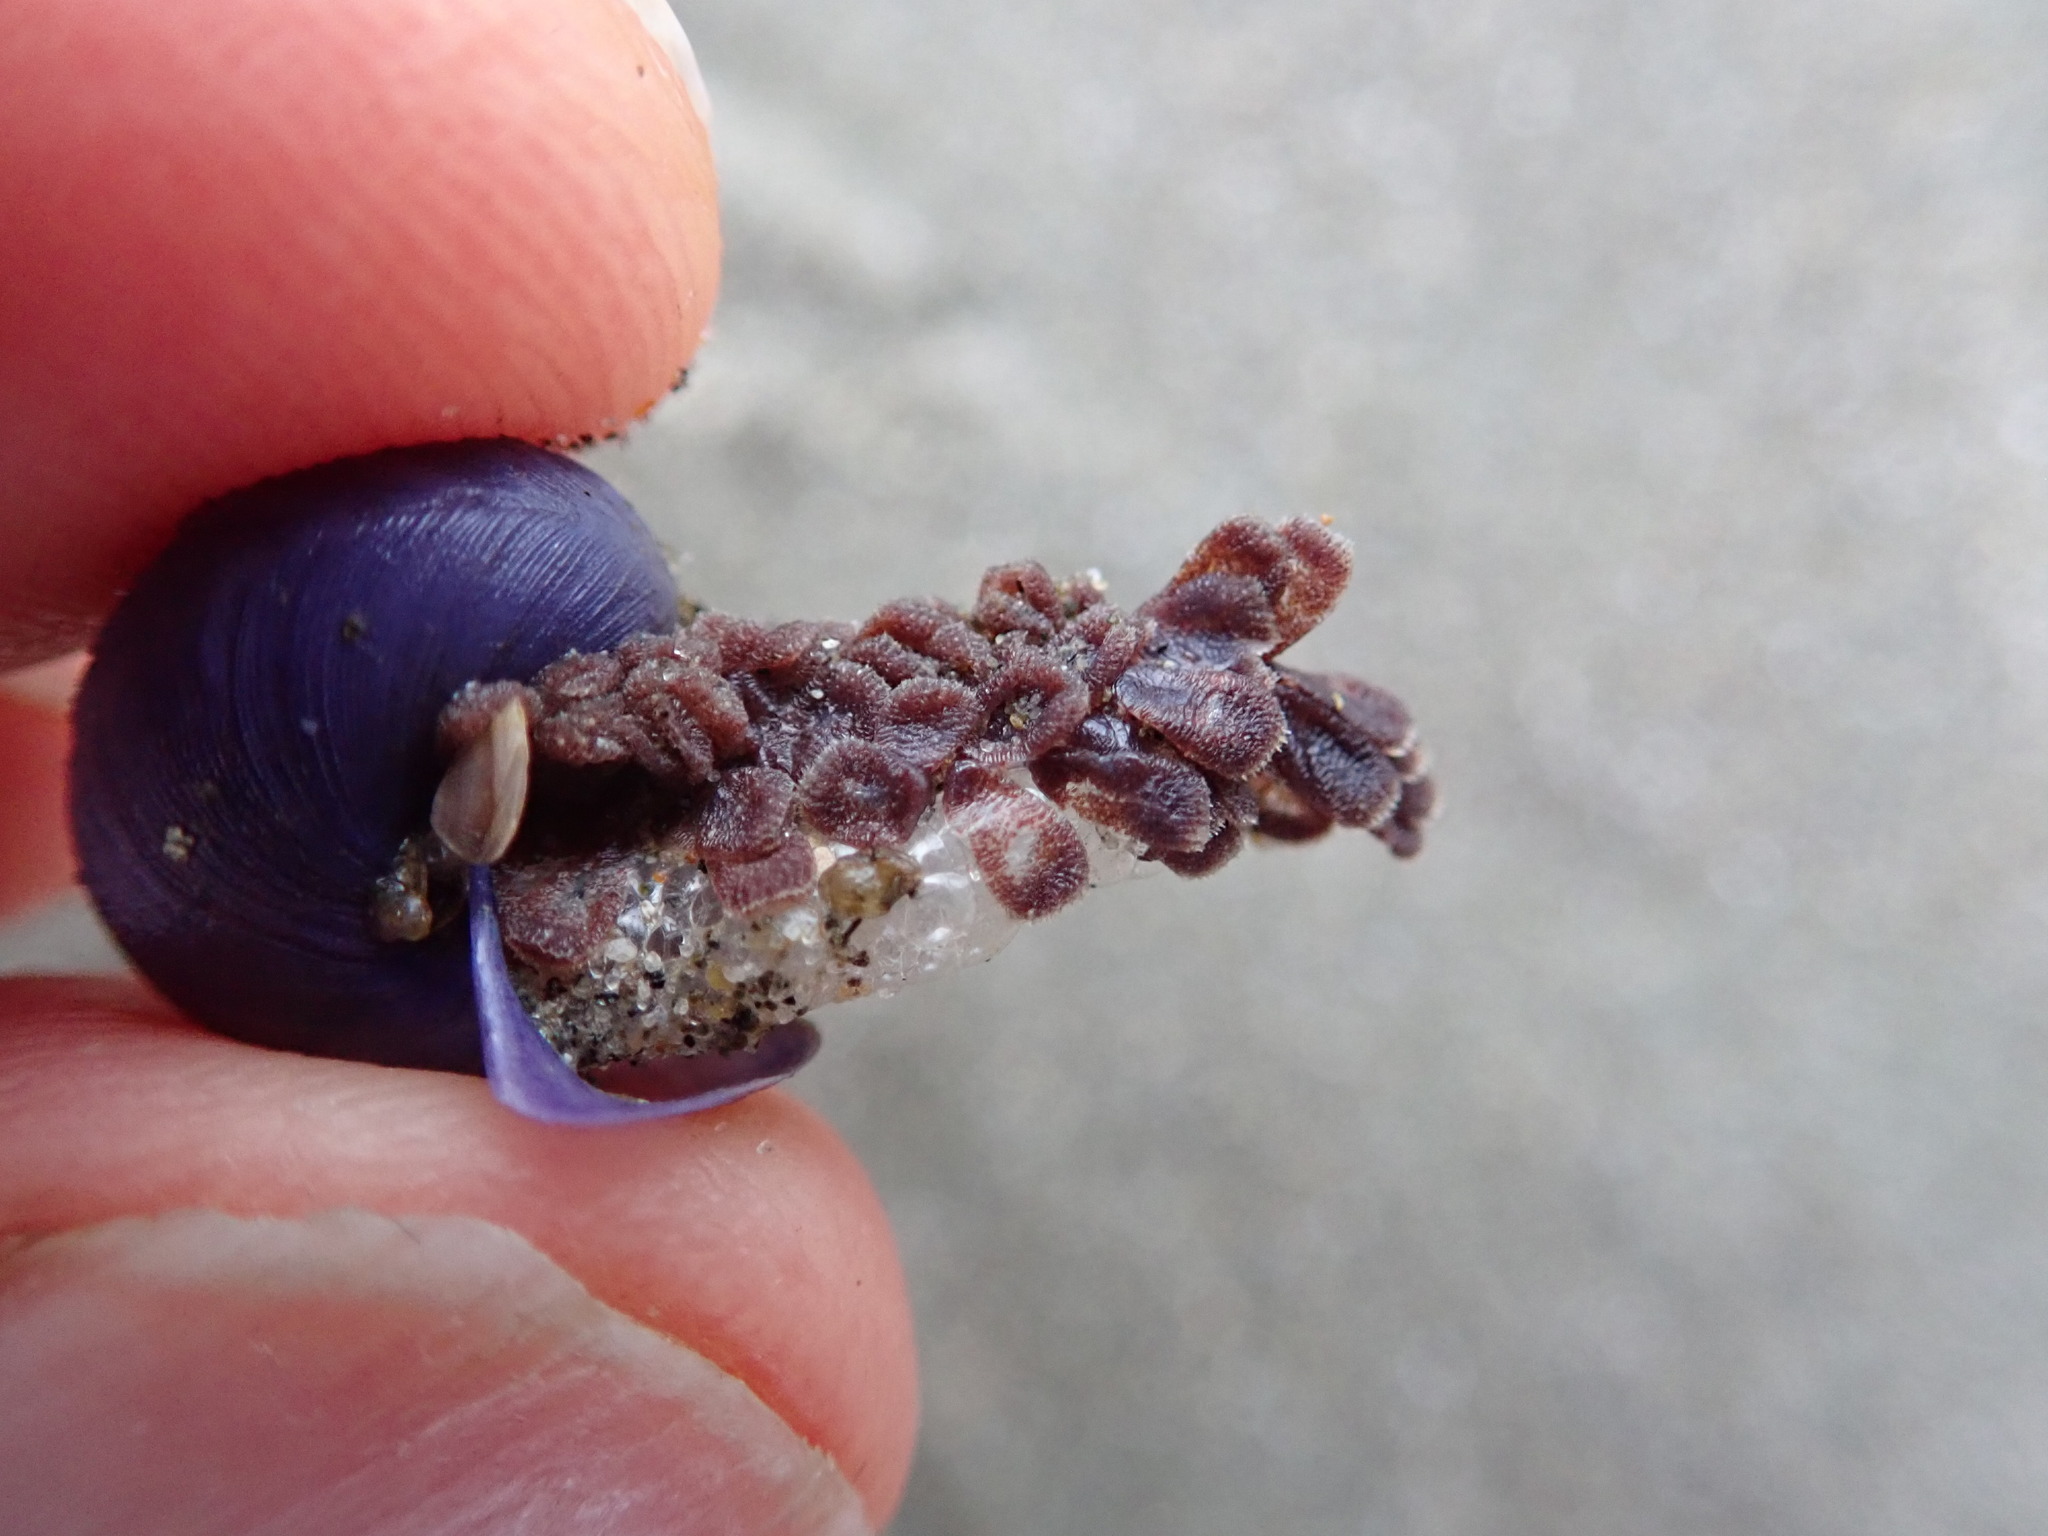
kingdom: Animalia
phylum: Mollusca
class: Gastropoda
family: Epitoniidae
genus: Janthina
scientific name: Janthina exigua
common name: Dwarf janthina
